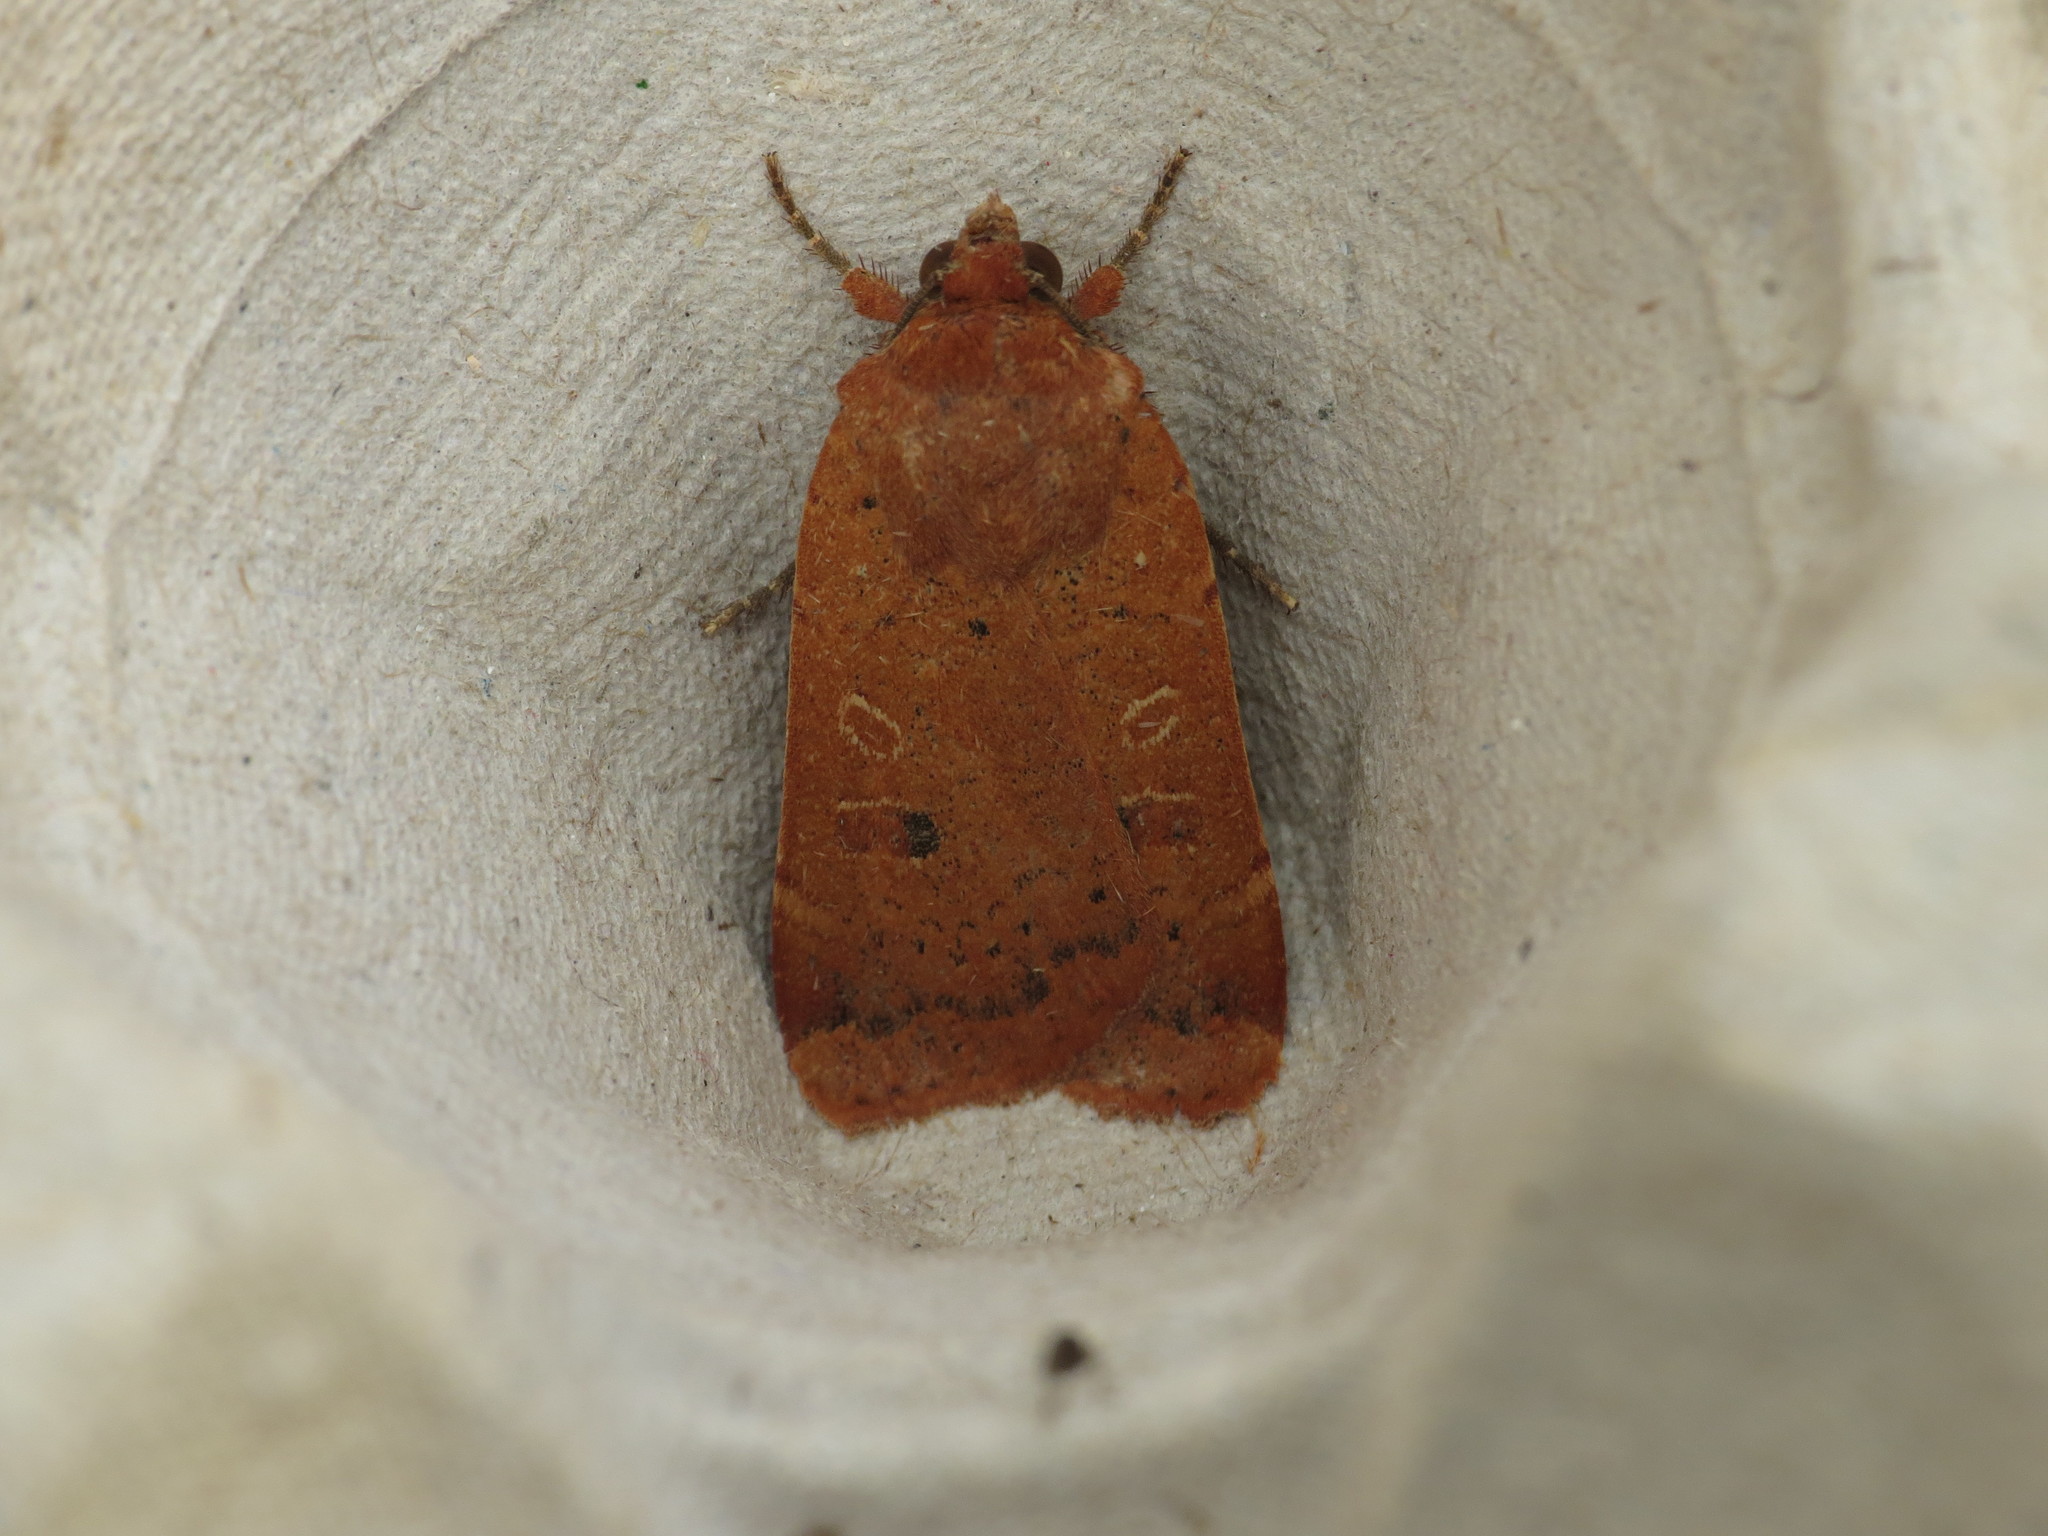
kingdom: Animalia
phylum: Arthropoda
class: Insecta
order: Lepidoptera
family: Noctuidae
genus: Noctua
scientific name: Noctua comes
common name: Lesser yellow underwing
